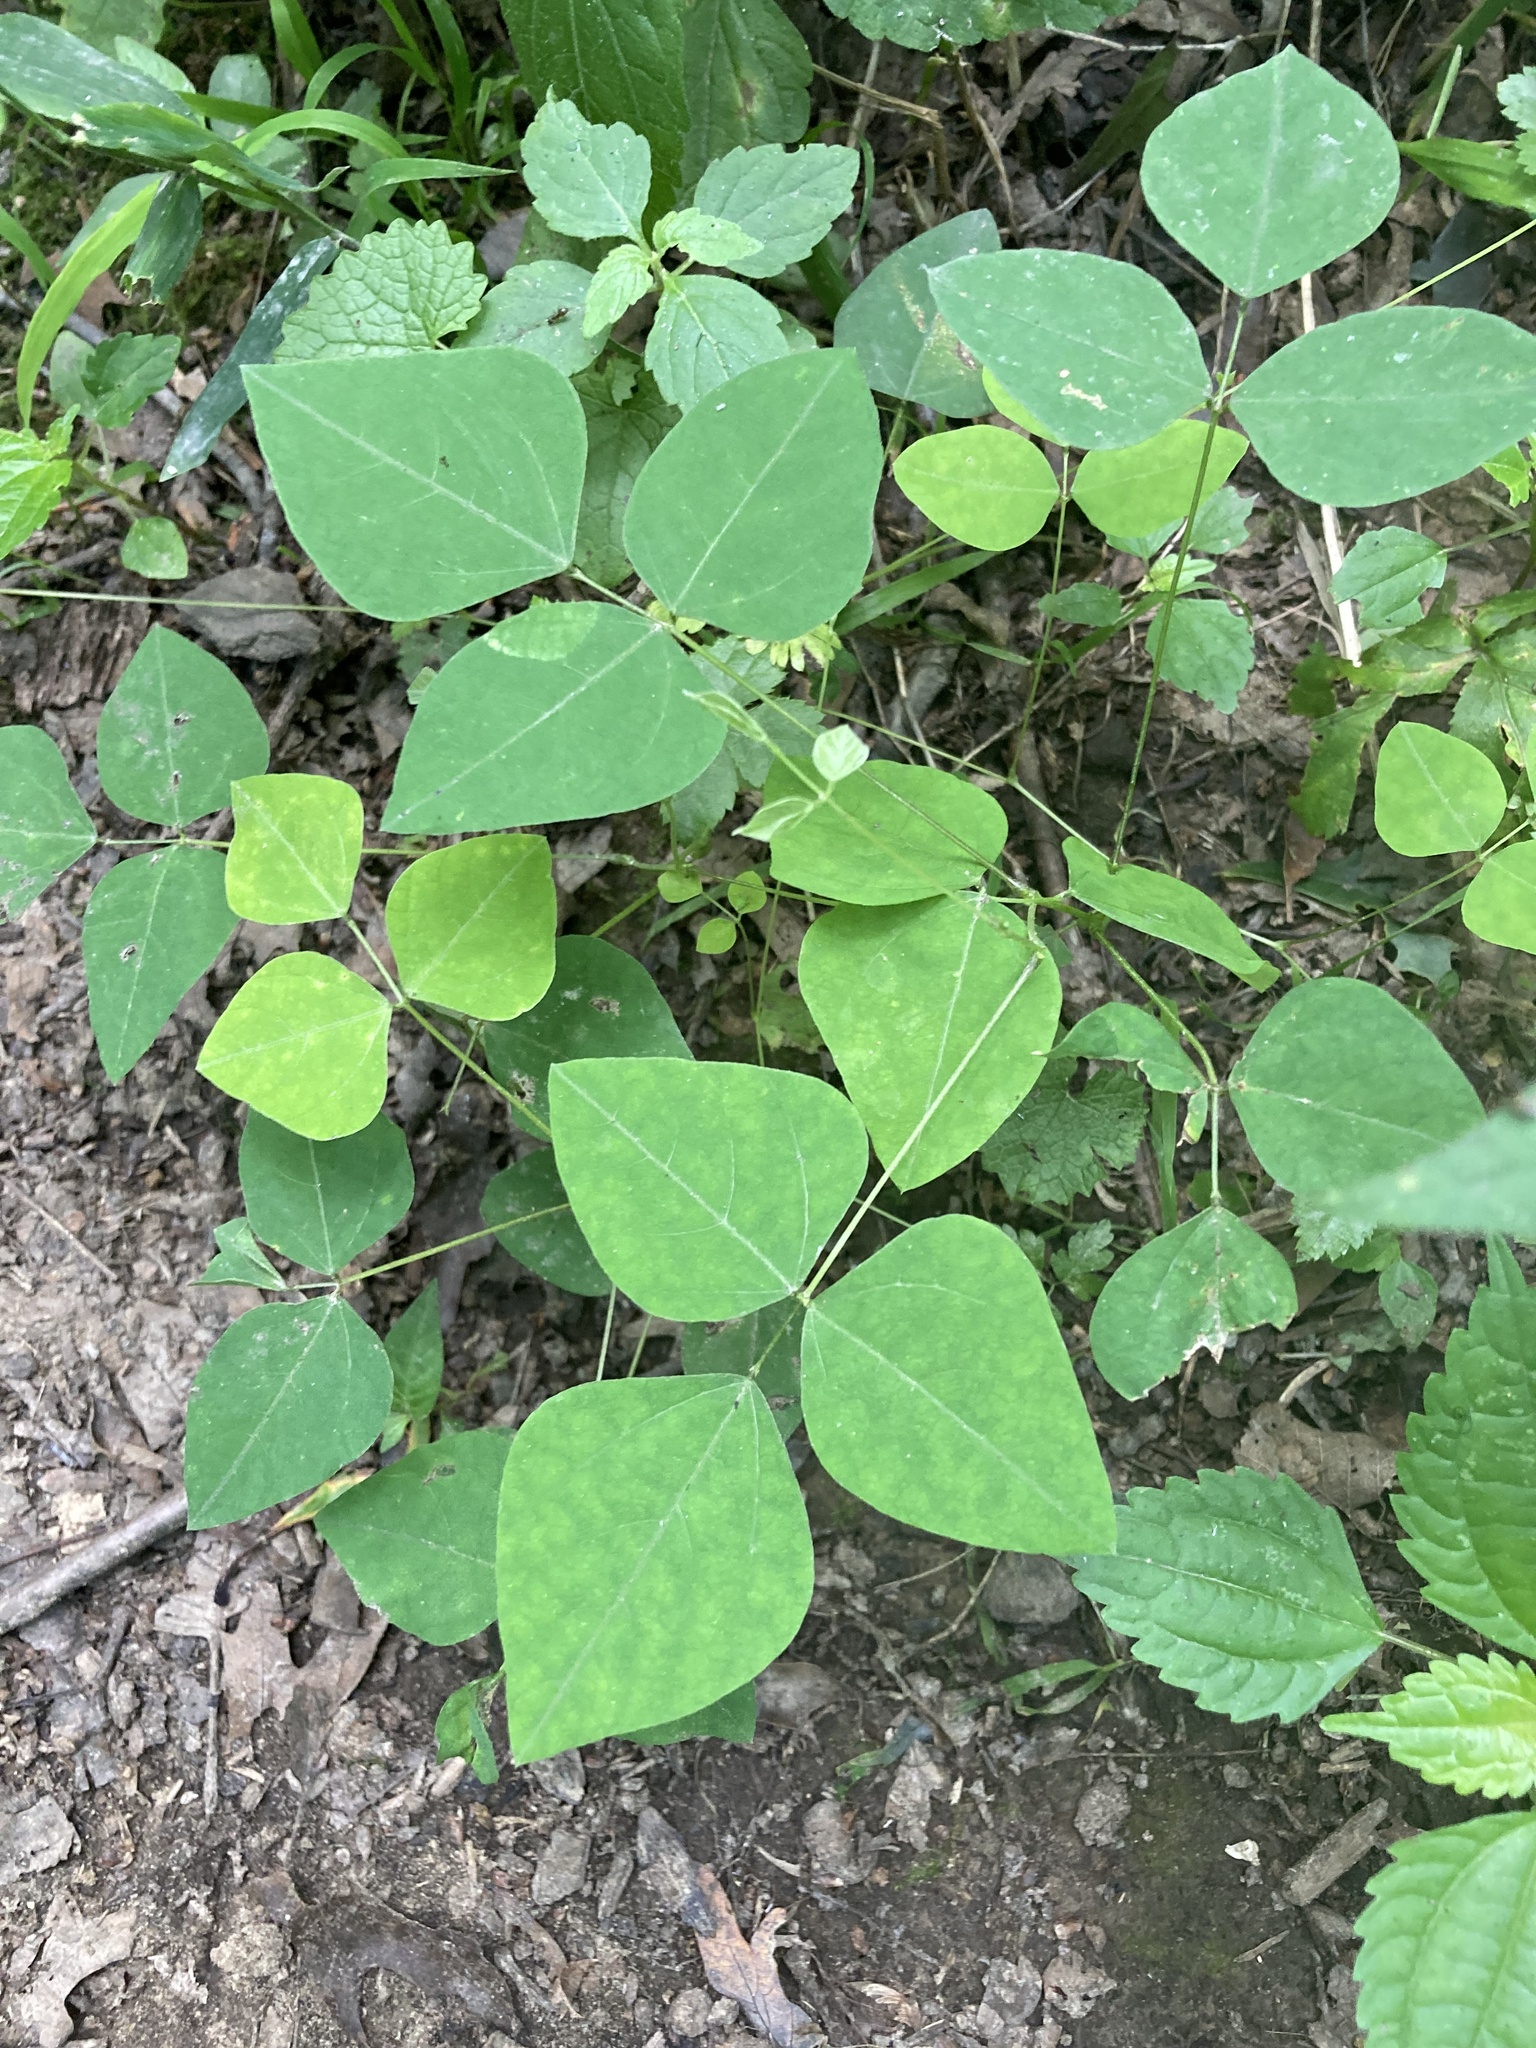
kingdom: Plantae
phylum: Tracheophyta
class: Magnoliopsida
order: Fabales
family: Fabaceae
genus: Amphicarpaea
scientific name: Amphicarpaea bracteata
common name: American hog peanut
